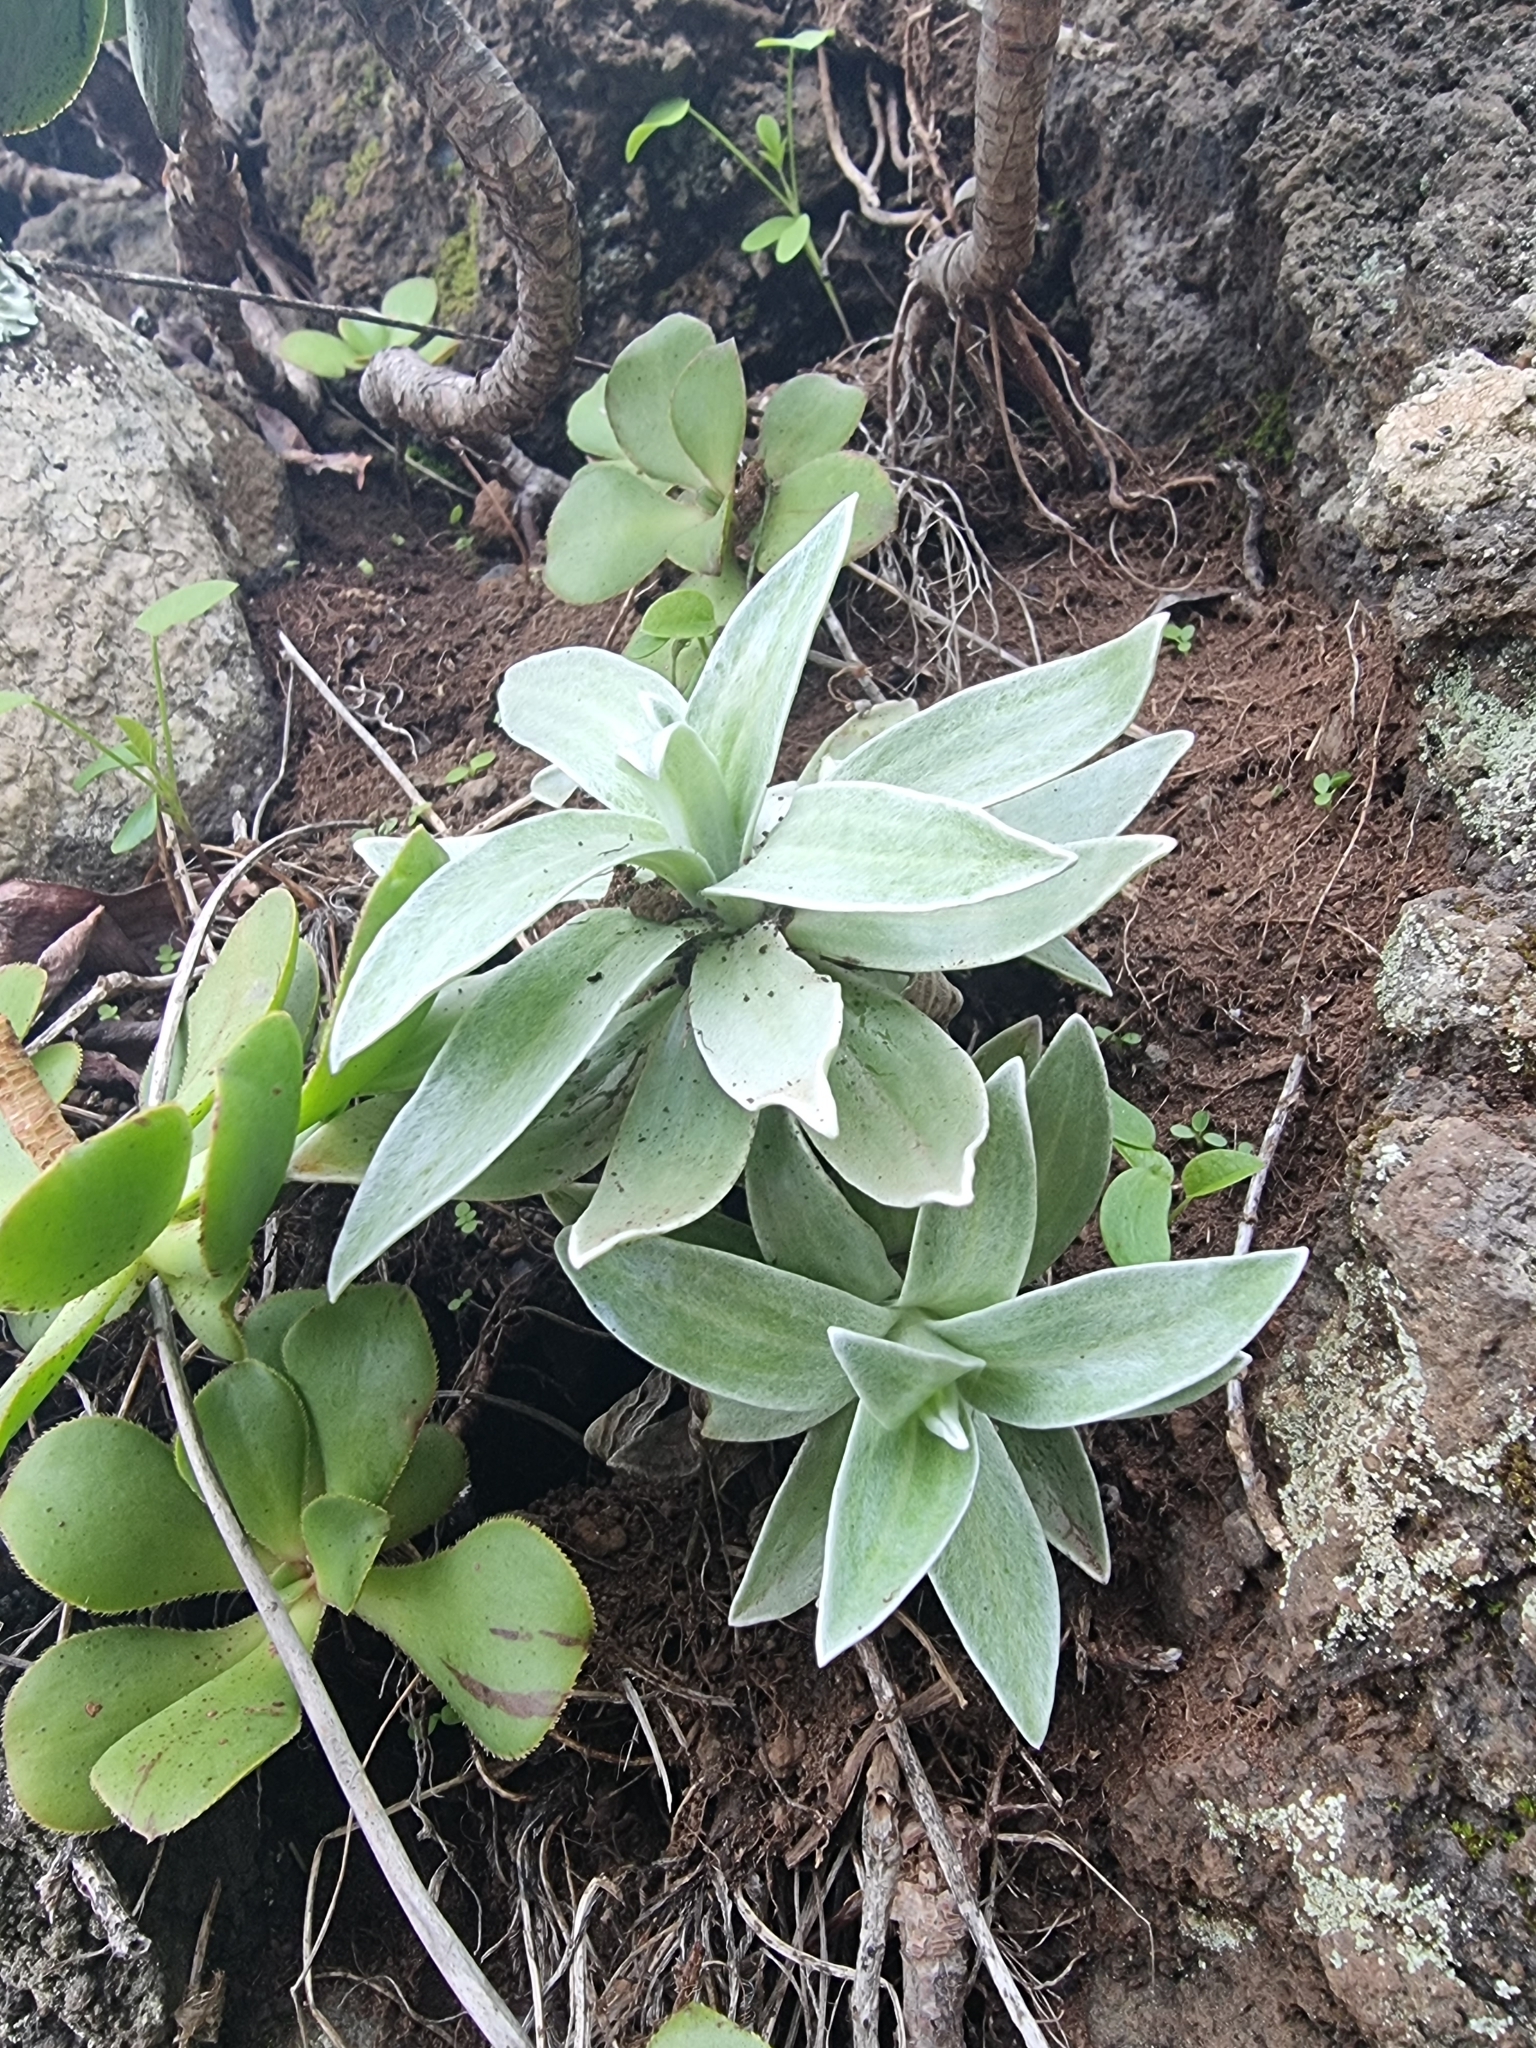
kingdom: Plantae
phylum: Tracheophyta
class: Magnoliopsida
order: Asterales
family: Asteraceae
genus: Helichrysum
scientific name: Helichrysum devium
